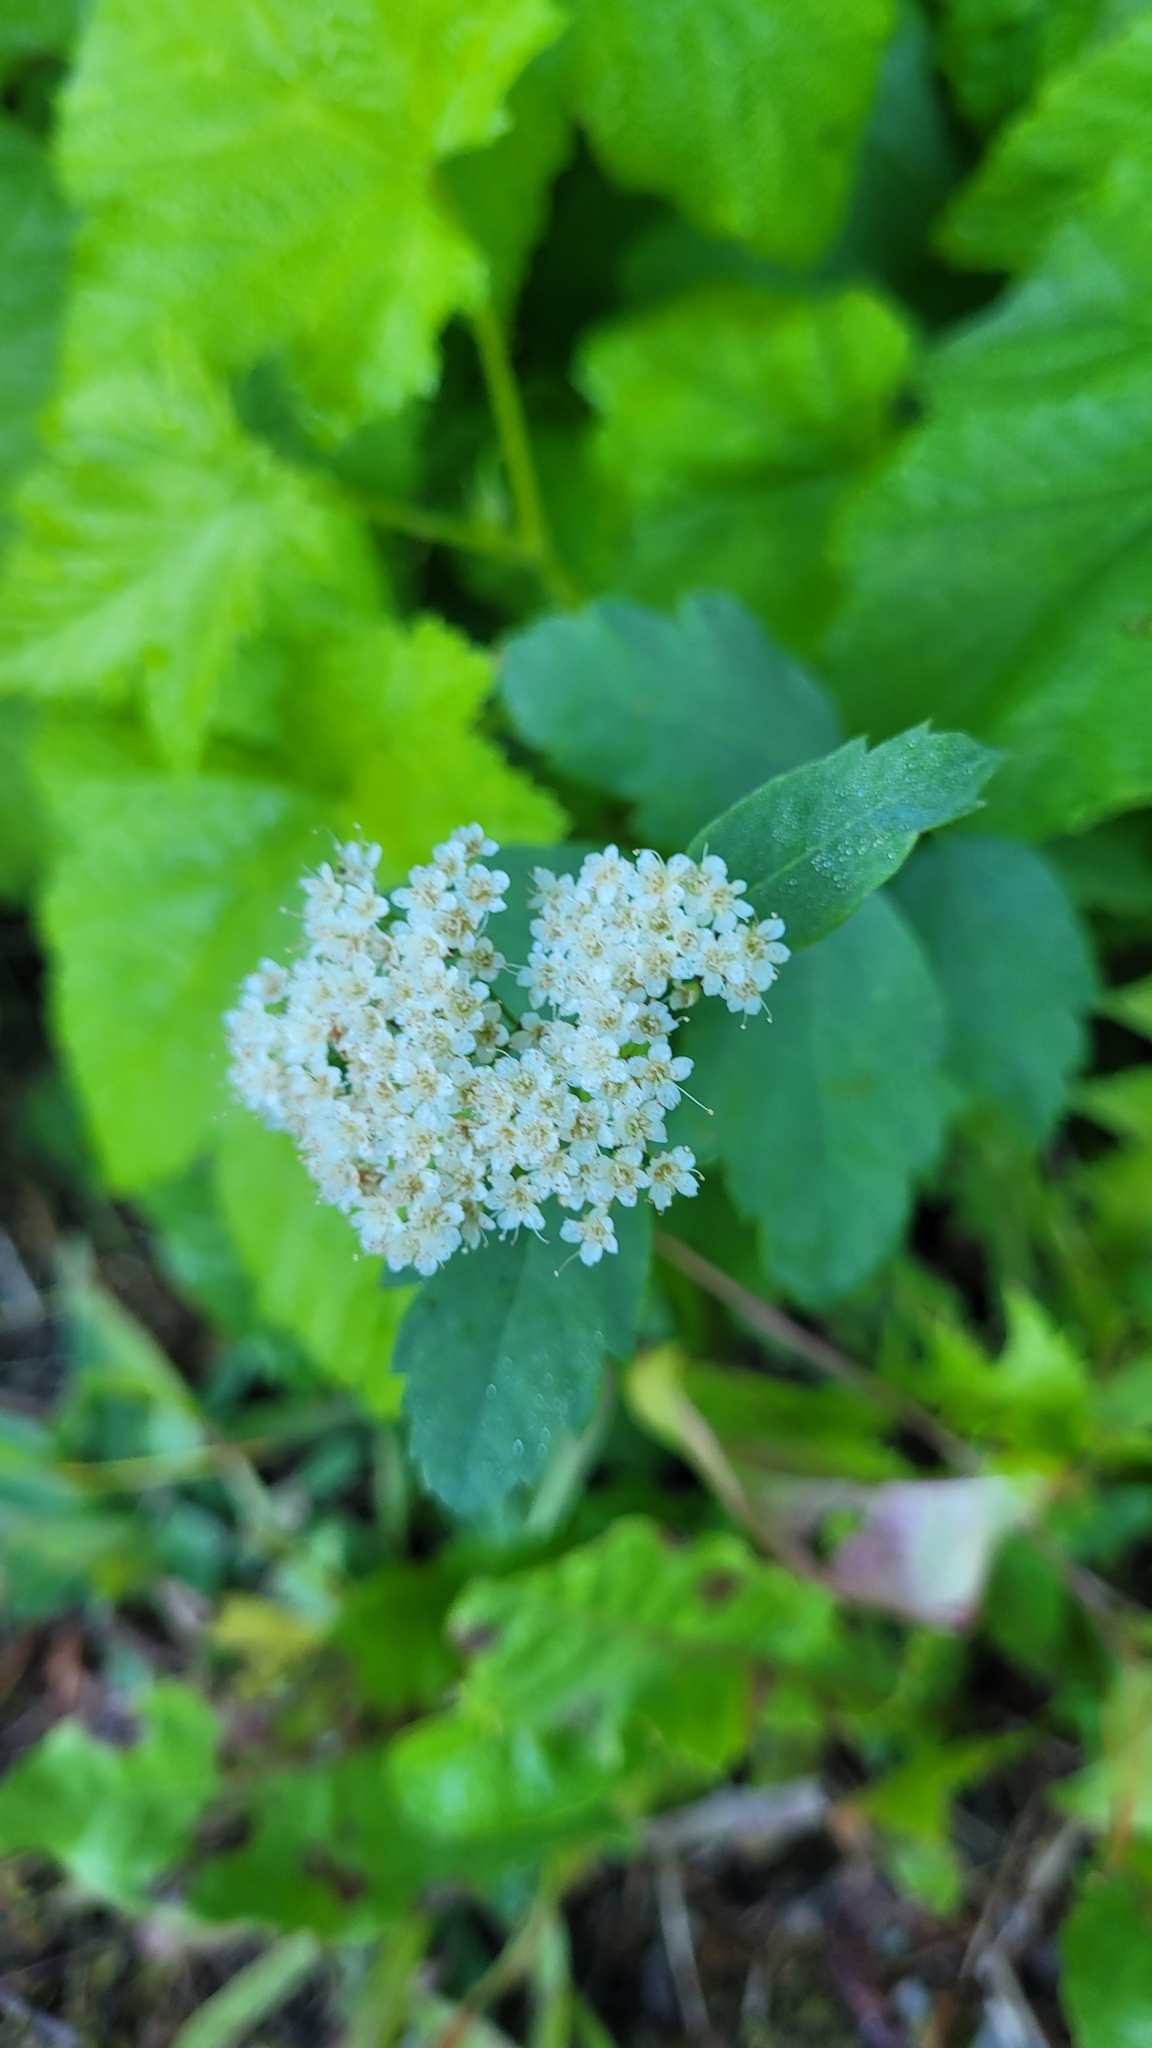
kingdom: Plantae
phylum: Tracheophyta
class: Magnoliopsida
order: Rosales
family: Rosaceae
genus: Spiraea
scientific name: Spiraea lucida
